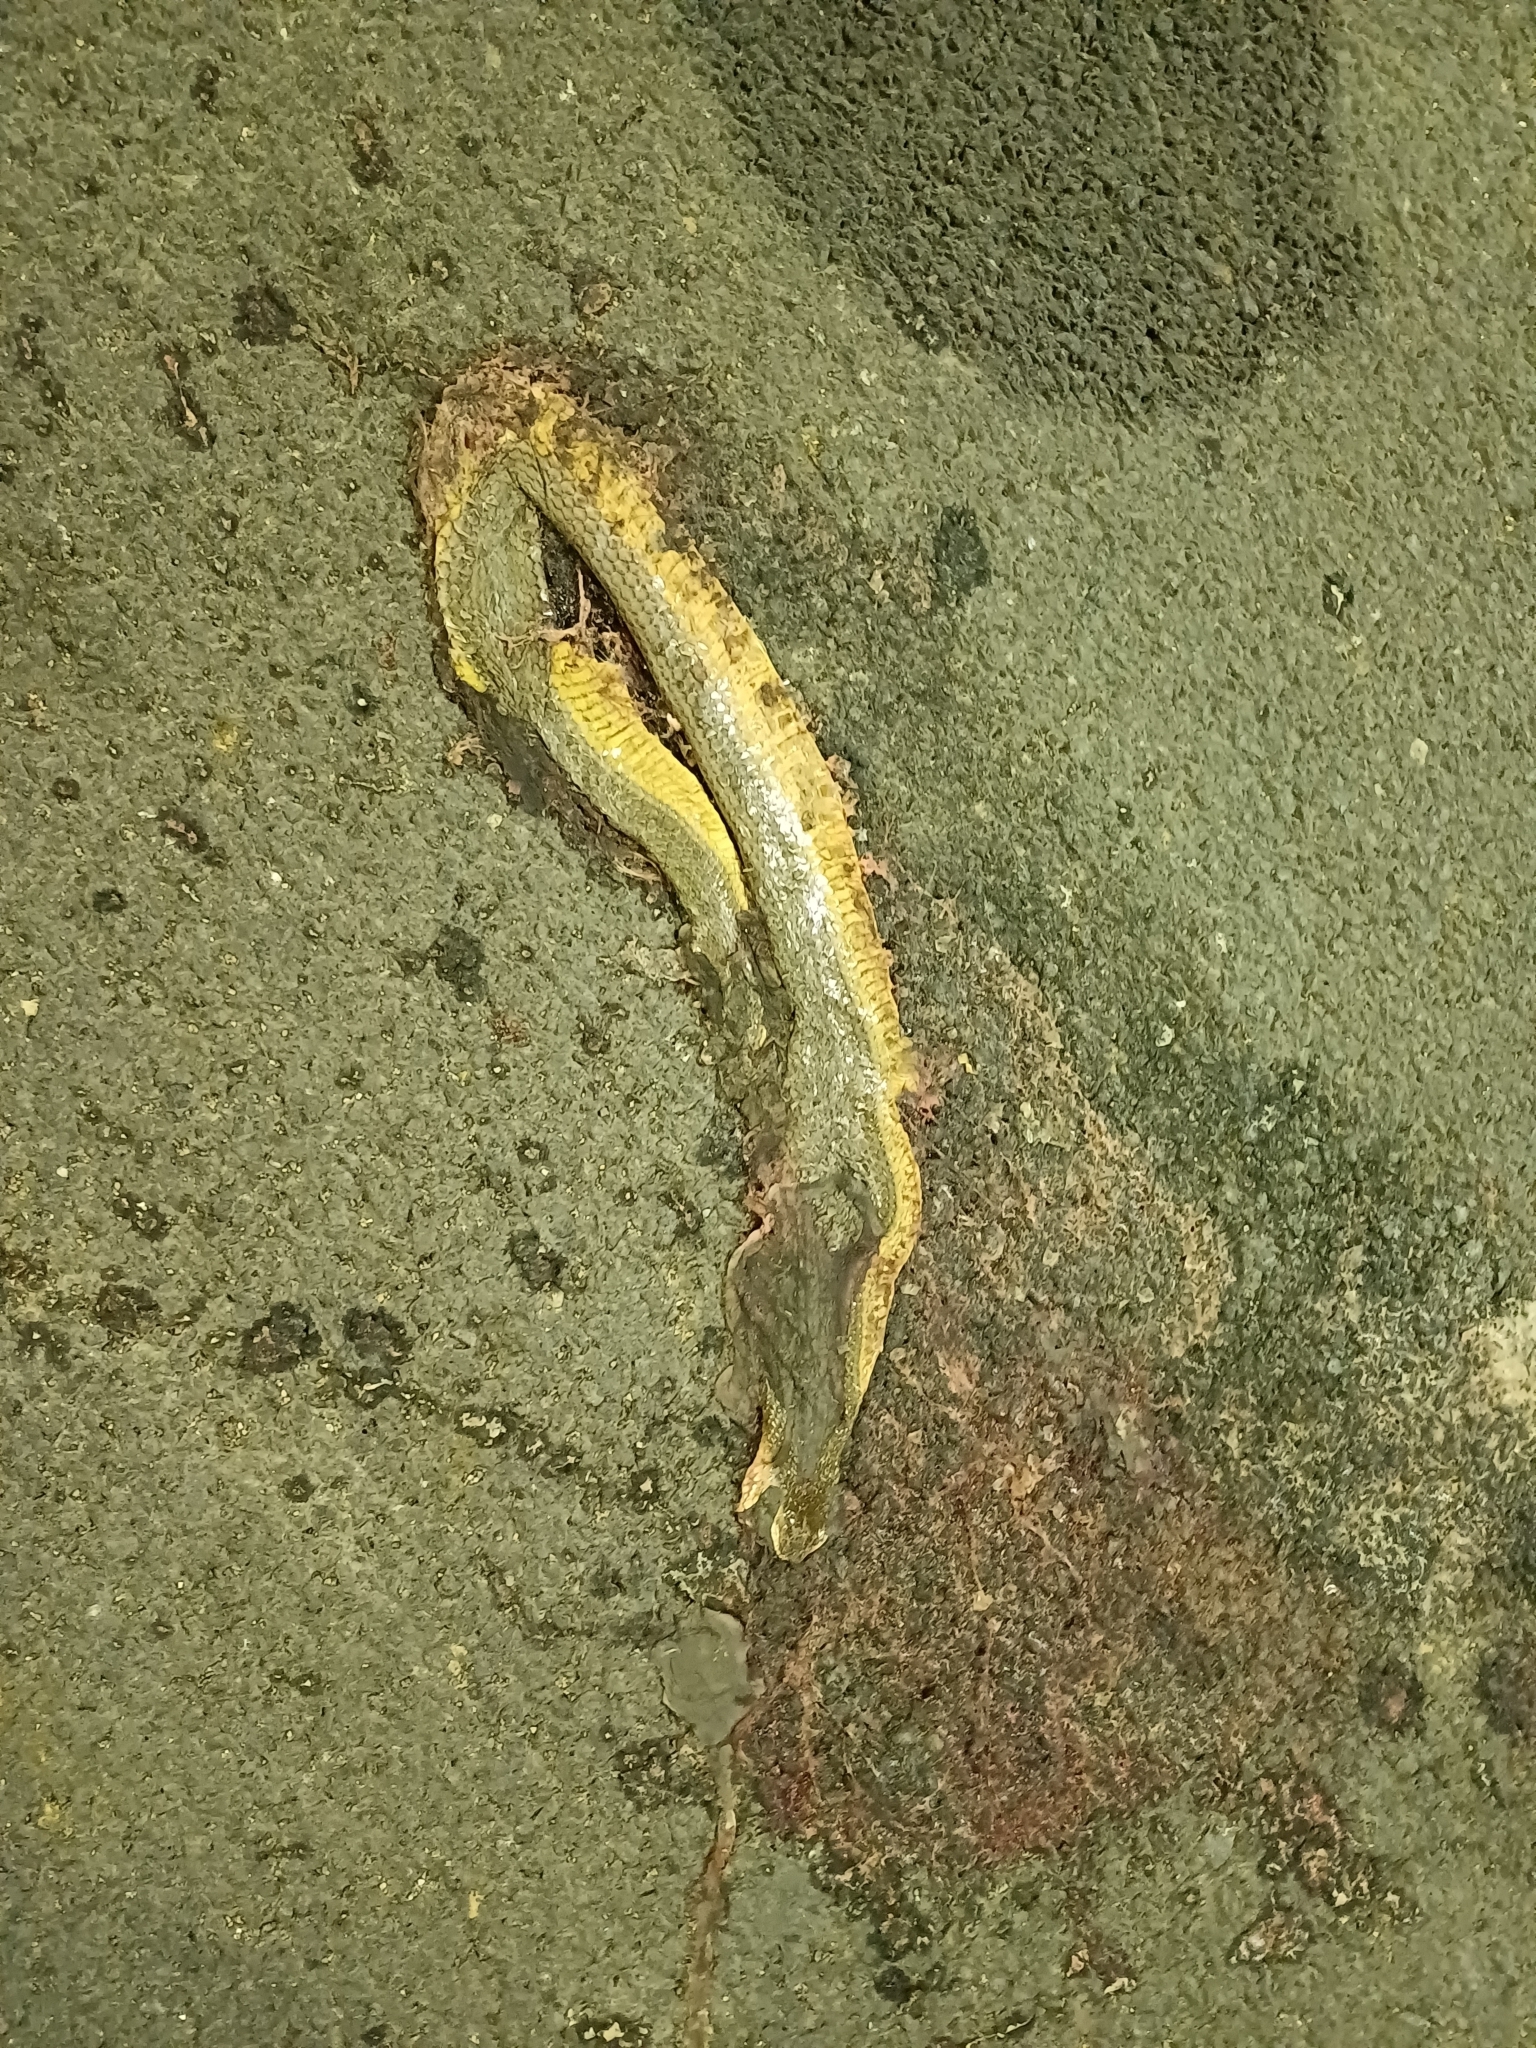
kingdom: Animalia
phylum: Chordata
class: Squamata
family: Colubridae
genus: Atretium
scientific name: Atretium schistosum
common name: Olive keelback wart snake
